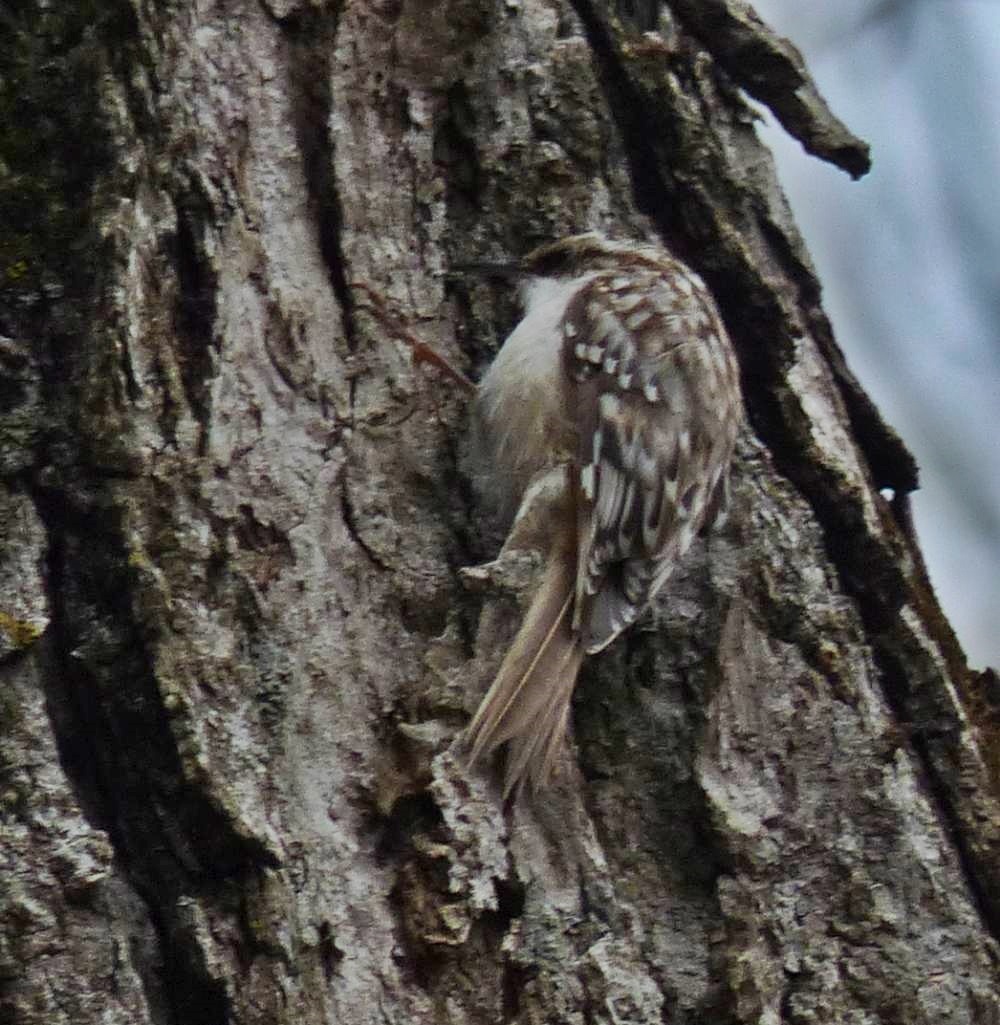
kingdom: Animalia
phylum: Chordata
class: Aves
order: Passeriformes
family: Certhiidae
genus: Certhia
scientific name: Certhia americana
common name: Brown creeper
